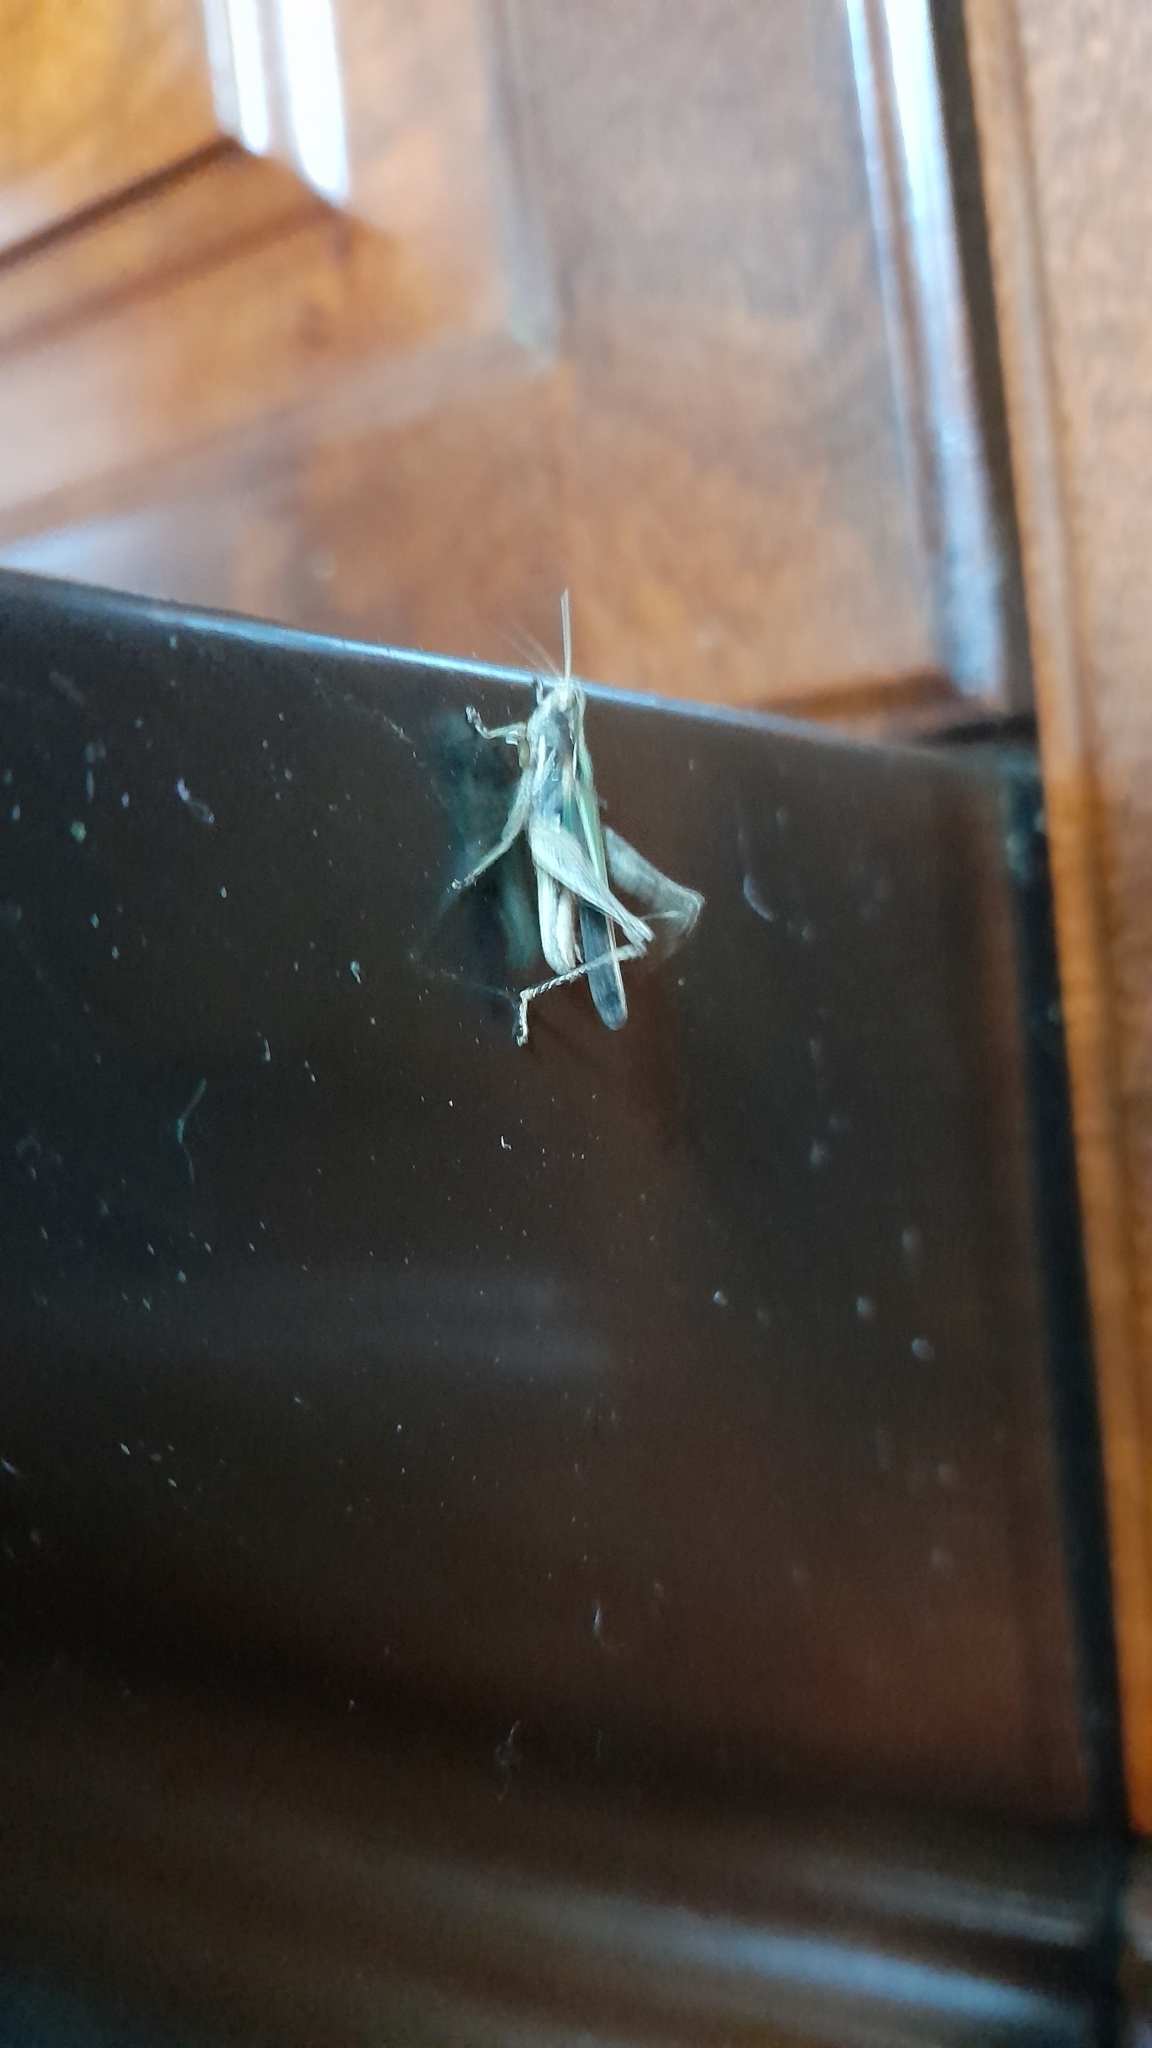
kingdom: Animalia
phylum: Arthropoda
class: Insecta
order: Orthoptera
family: Acrididae
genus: Orphulella
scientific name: Orphulella punctata
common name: Slant-faced grasshopper
